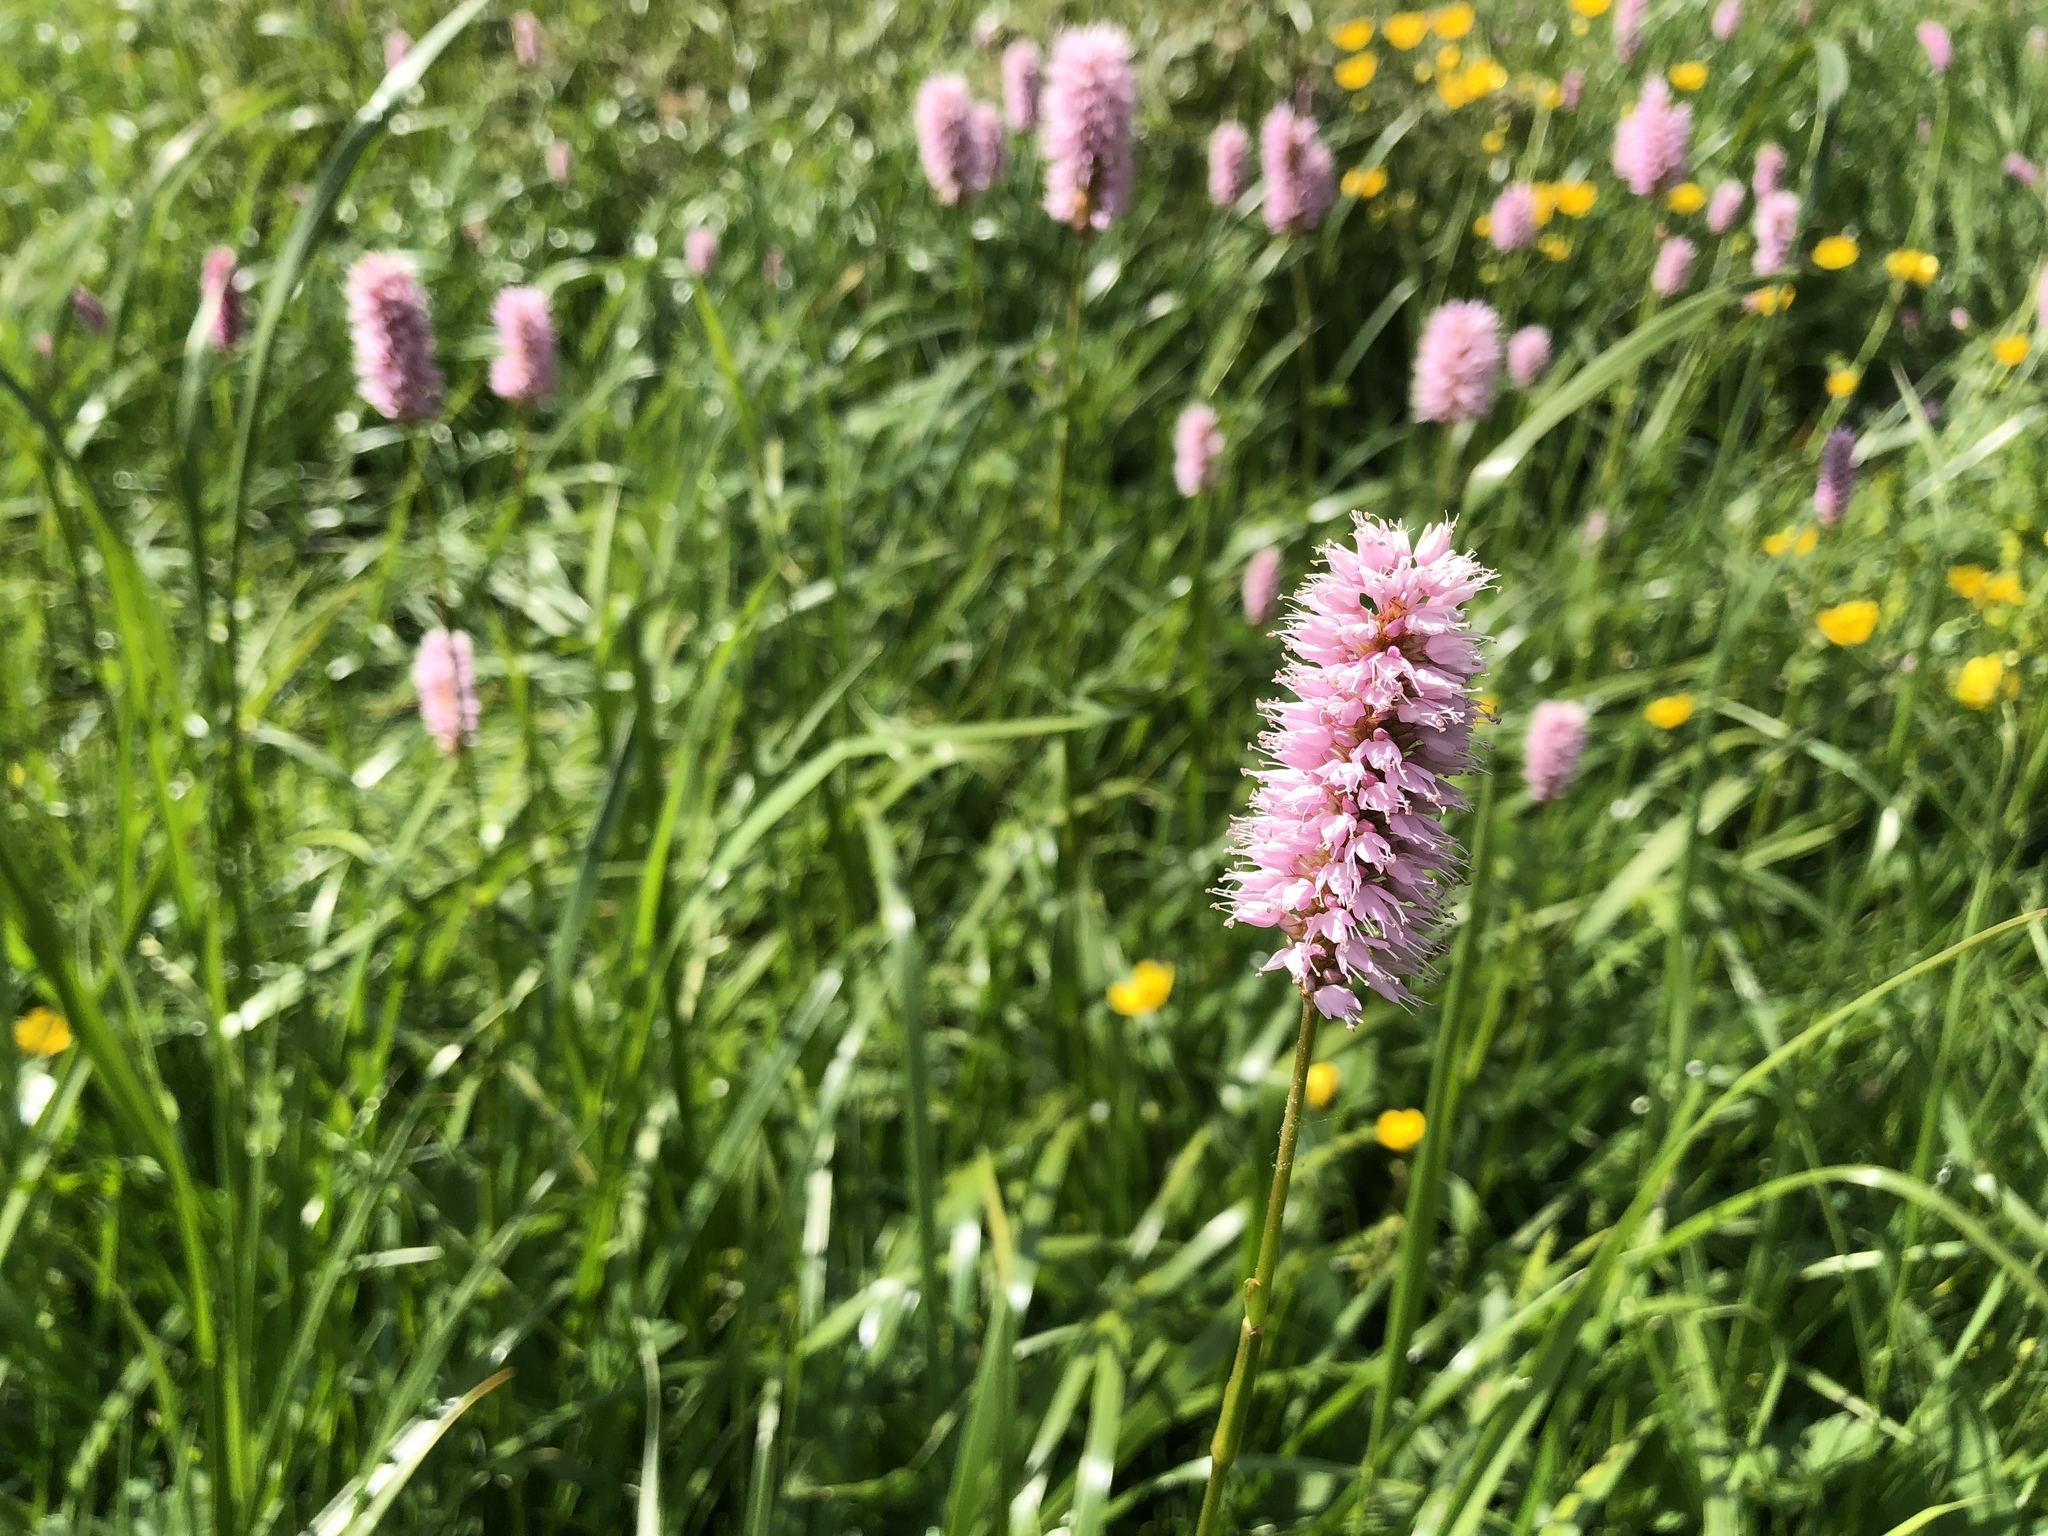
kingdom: Plantae
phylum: Tracheophyta
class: Magnoliopsida
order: Caryophyllales
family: Polygonaceae
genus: Bistorta
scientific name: Bistorta officinalis
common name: Common bistort
